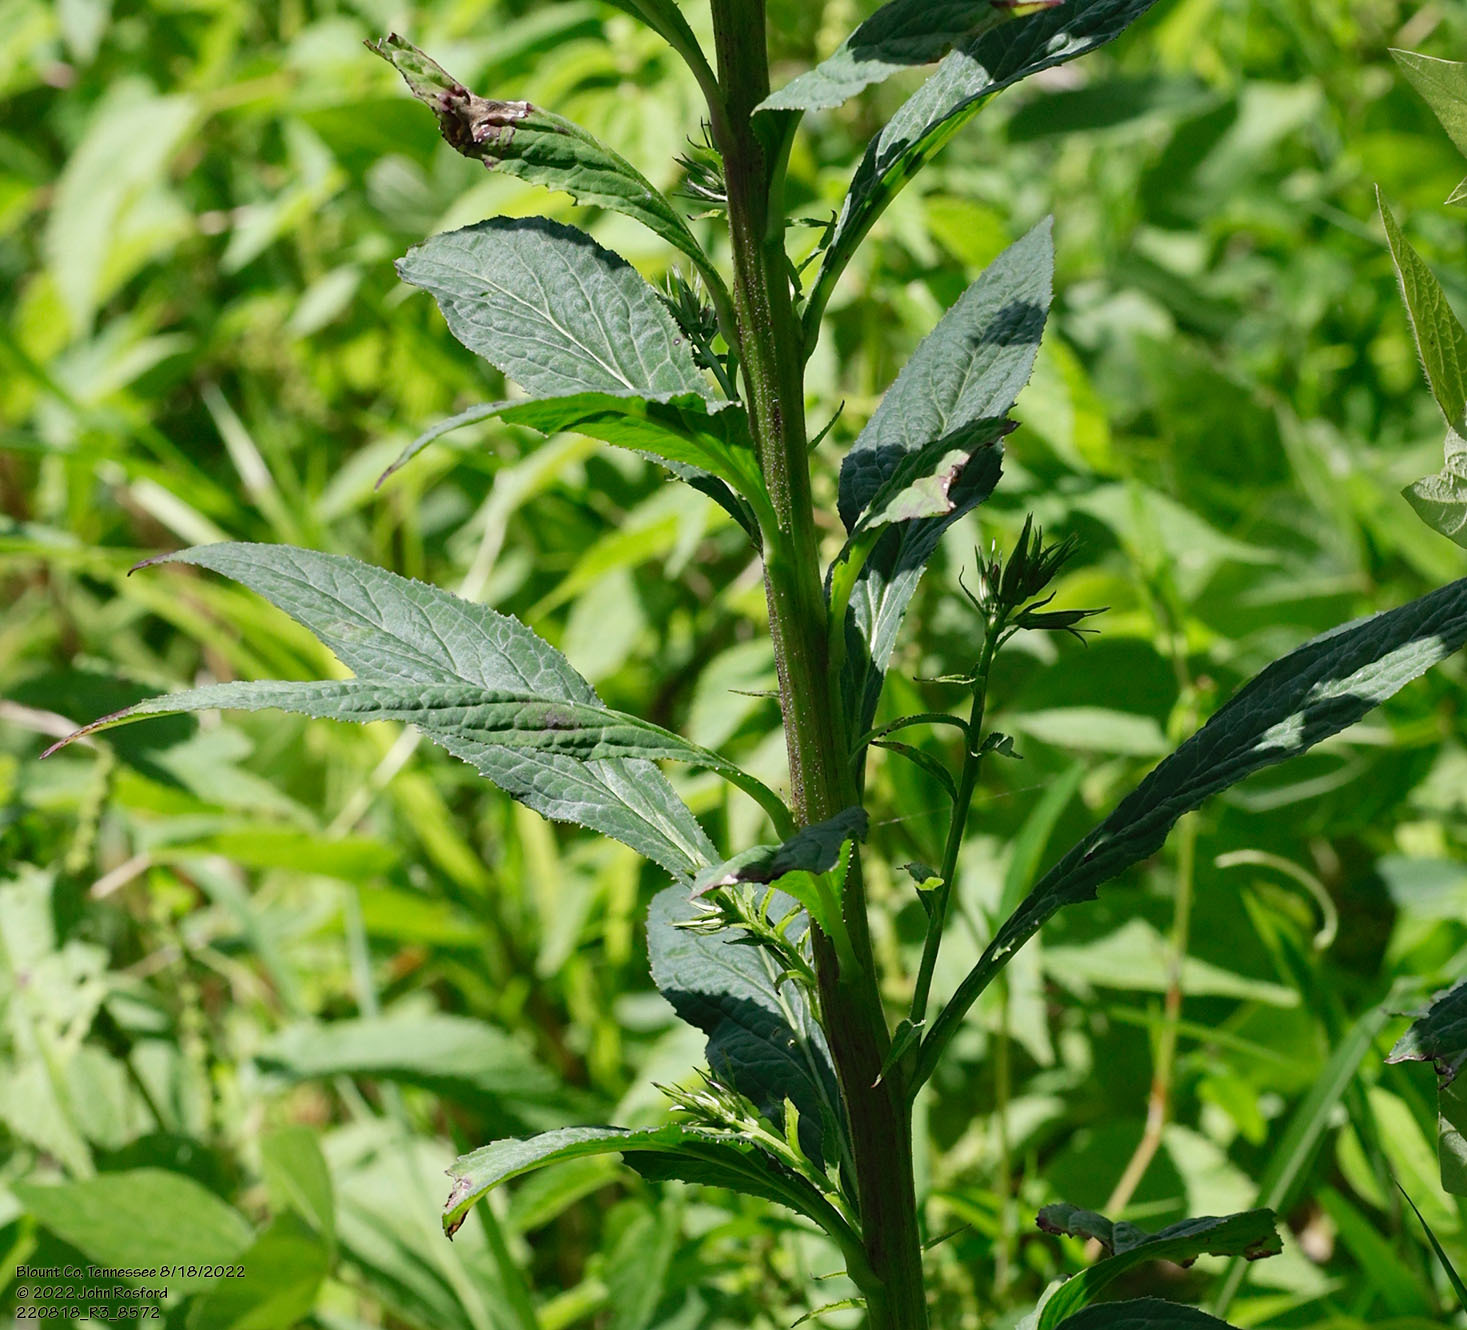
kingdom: Plantae
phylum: Tracheophyta
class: Magnoliopsida
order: Asterales
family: Campanulaceae
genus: Lobelia
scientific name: Lobelia cardinalis
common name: Cardinal flower
